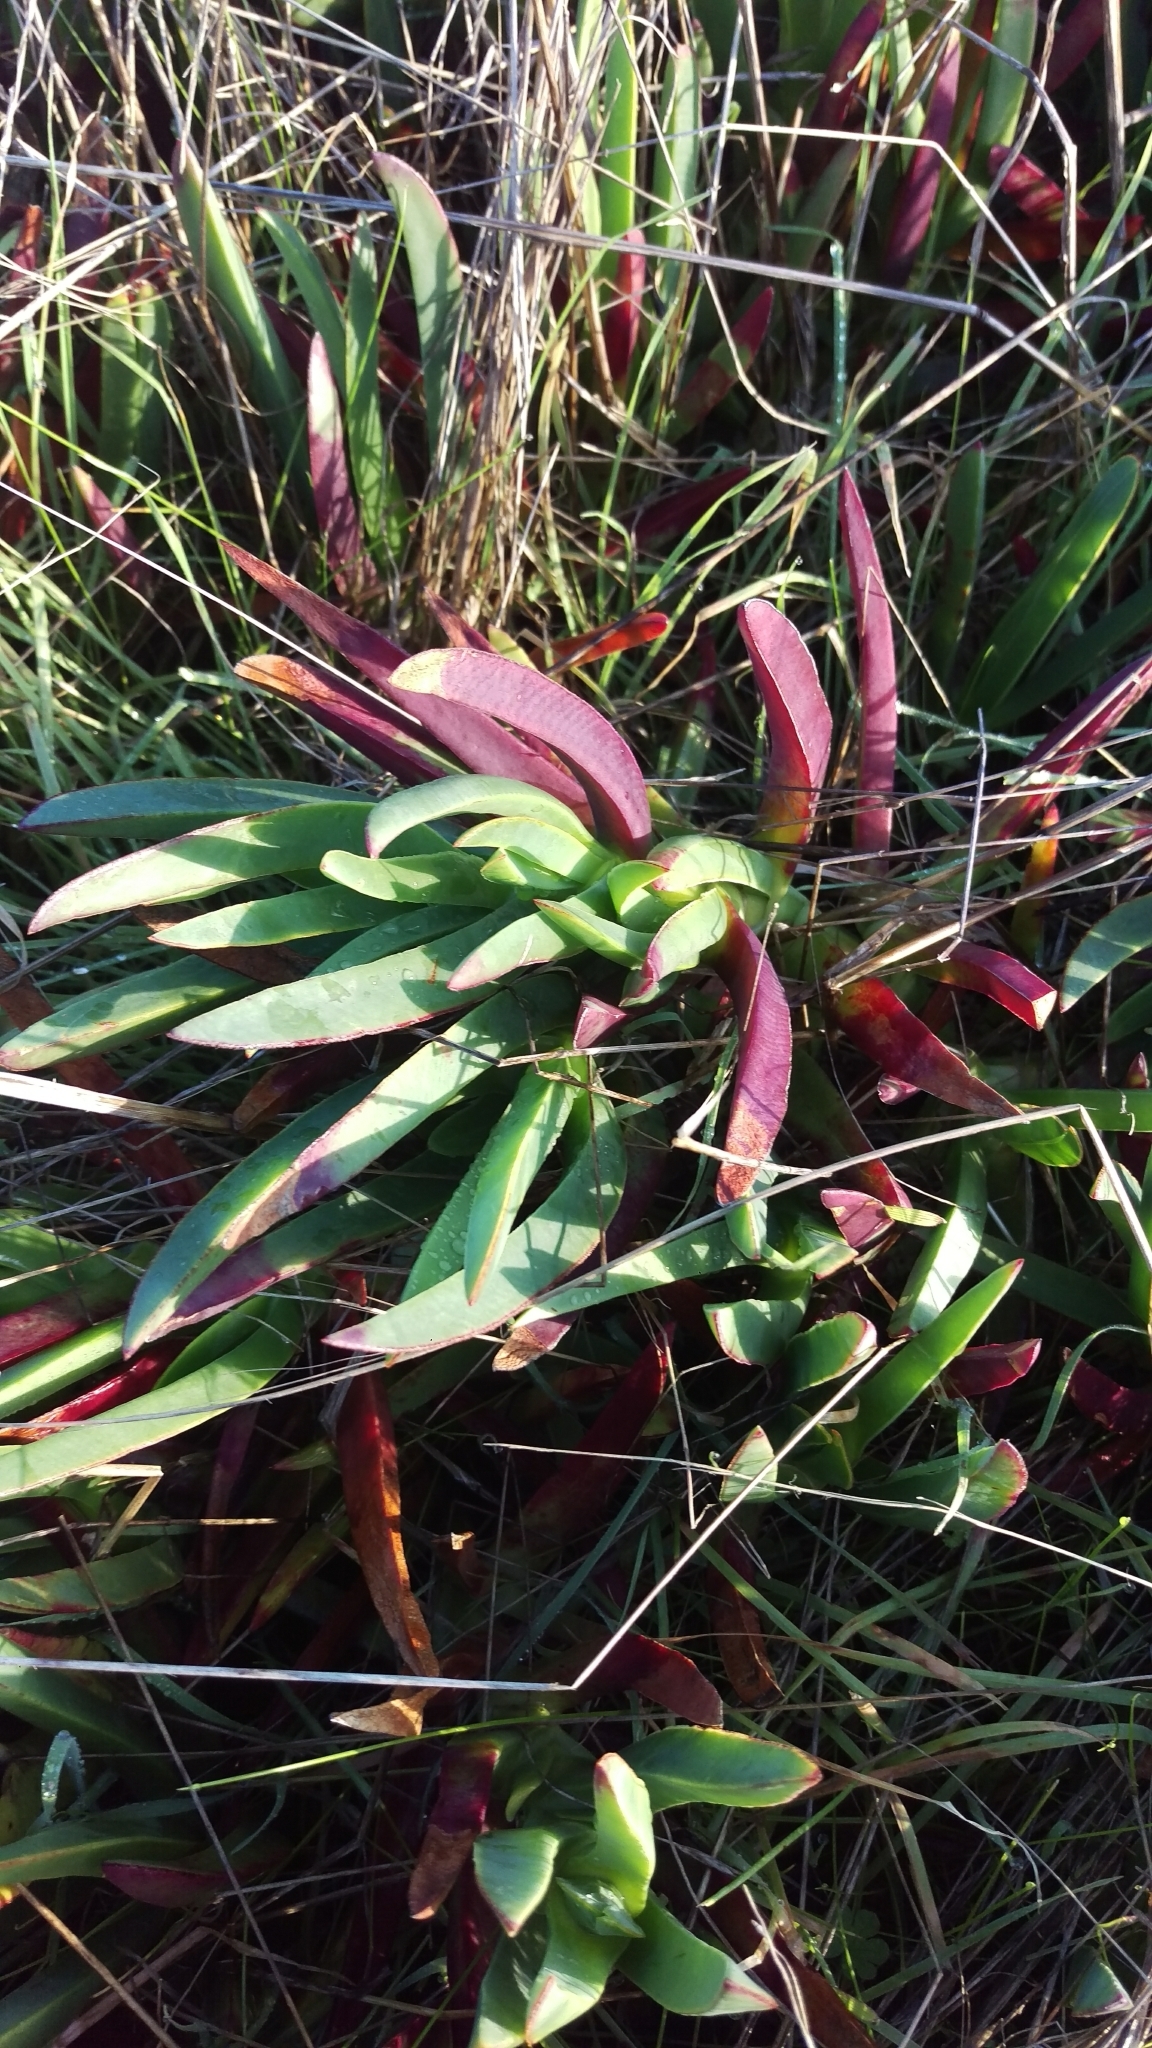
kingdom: Plantae
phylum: Tracheophyta
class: Magnoliopsida
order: Caryophyllales
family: Aizoaceae
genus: Carpobrotus
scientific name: Carpobrotus edulis
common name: Hottentot-fig
